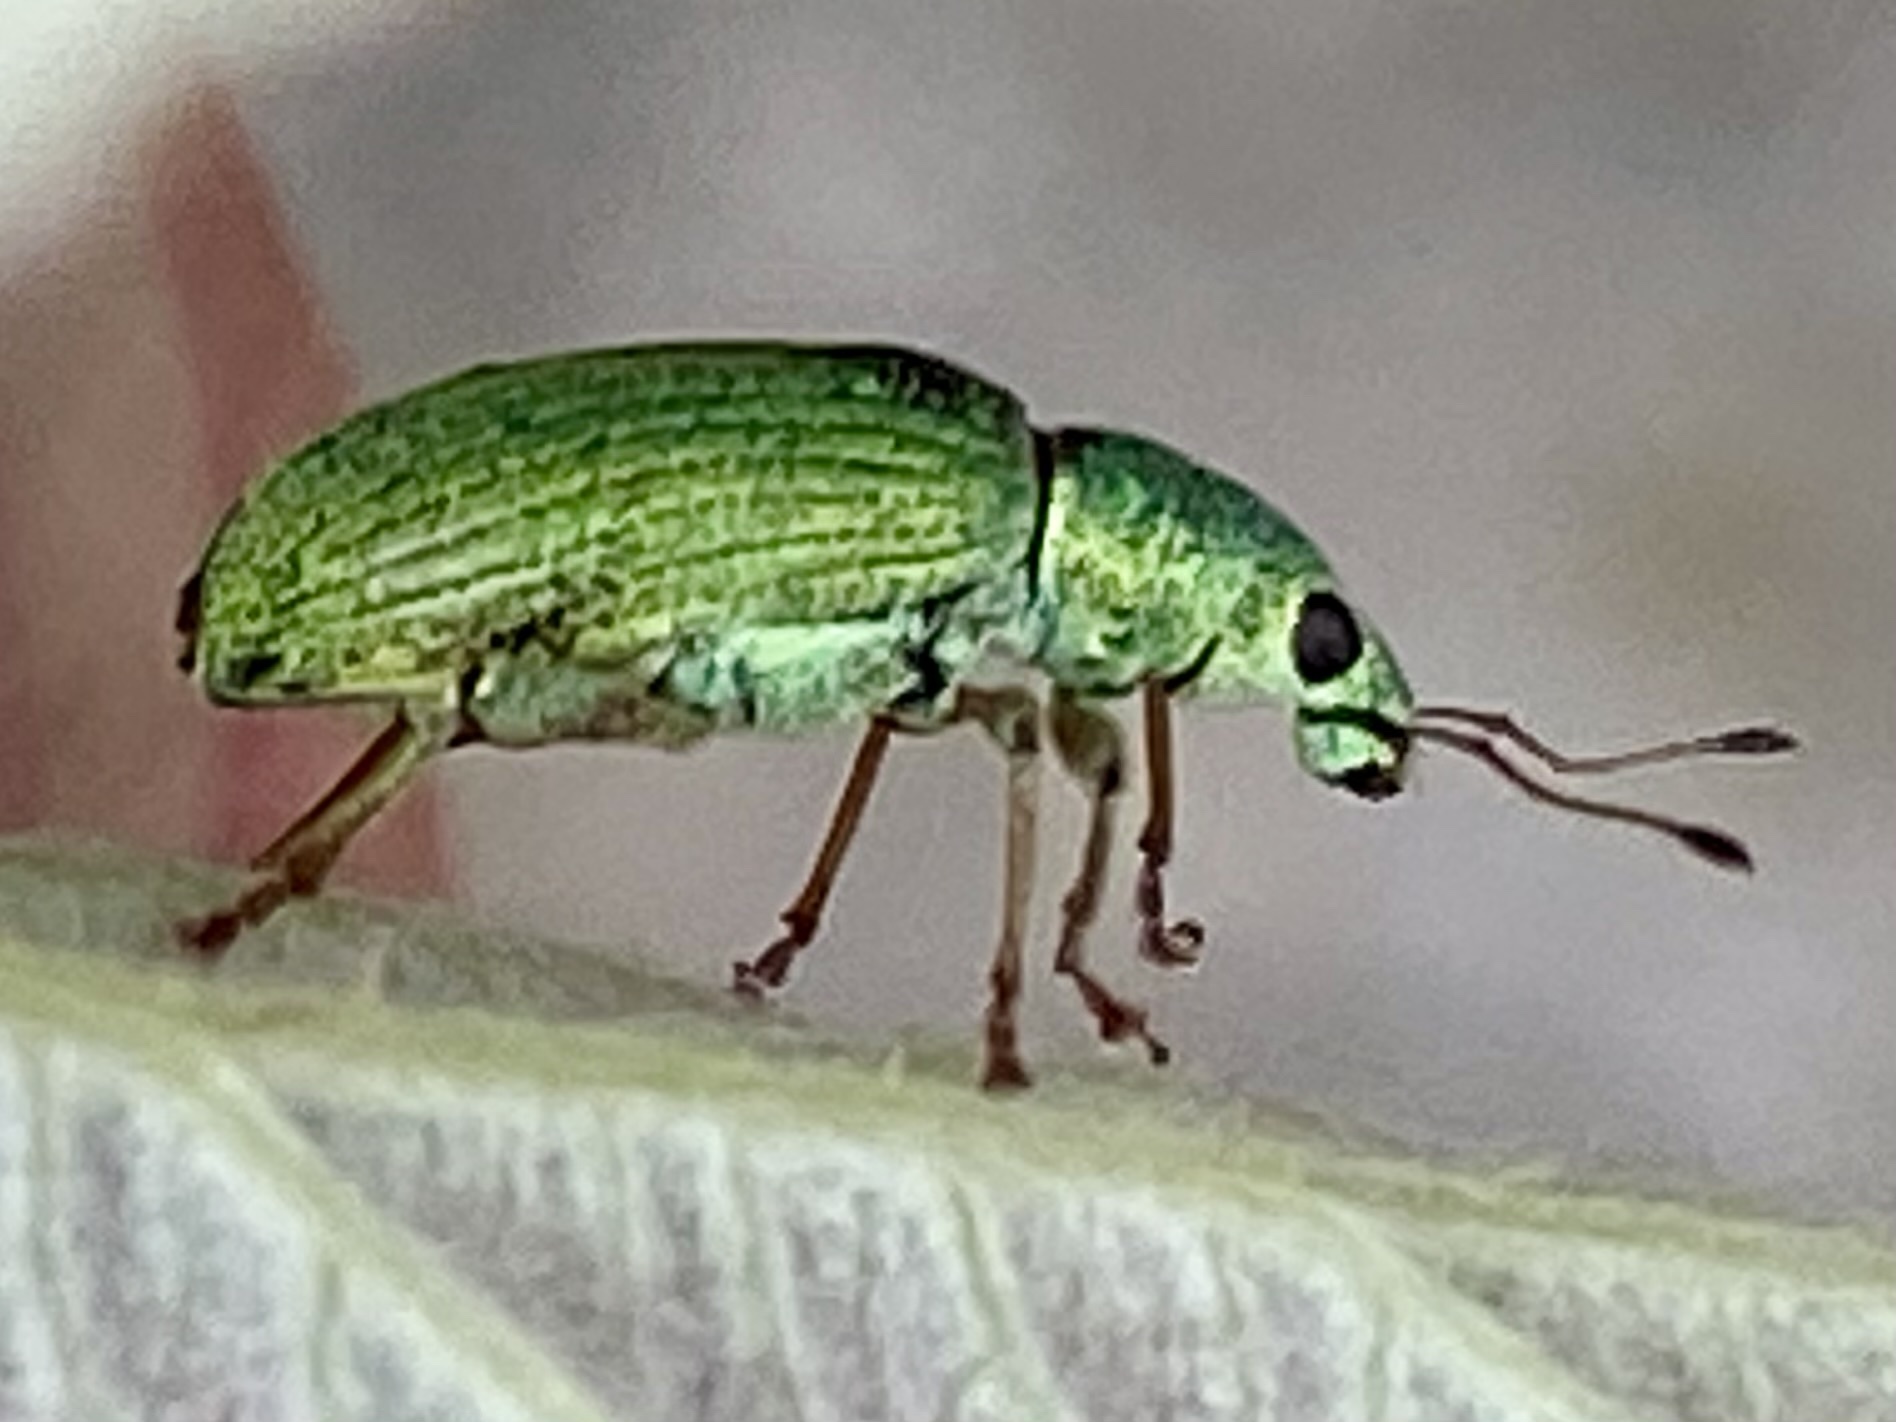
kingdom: Animalia
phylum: Arthropoda
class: Insecta
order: Coleoptera
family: Curculionidae
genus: Polydrusus
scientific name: Polydrusus formosus
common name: Weevil
